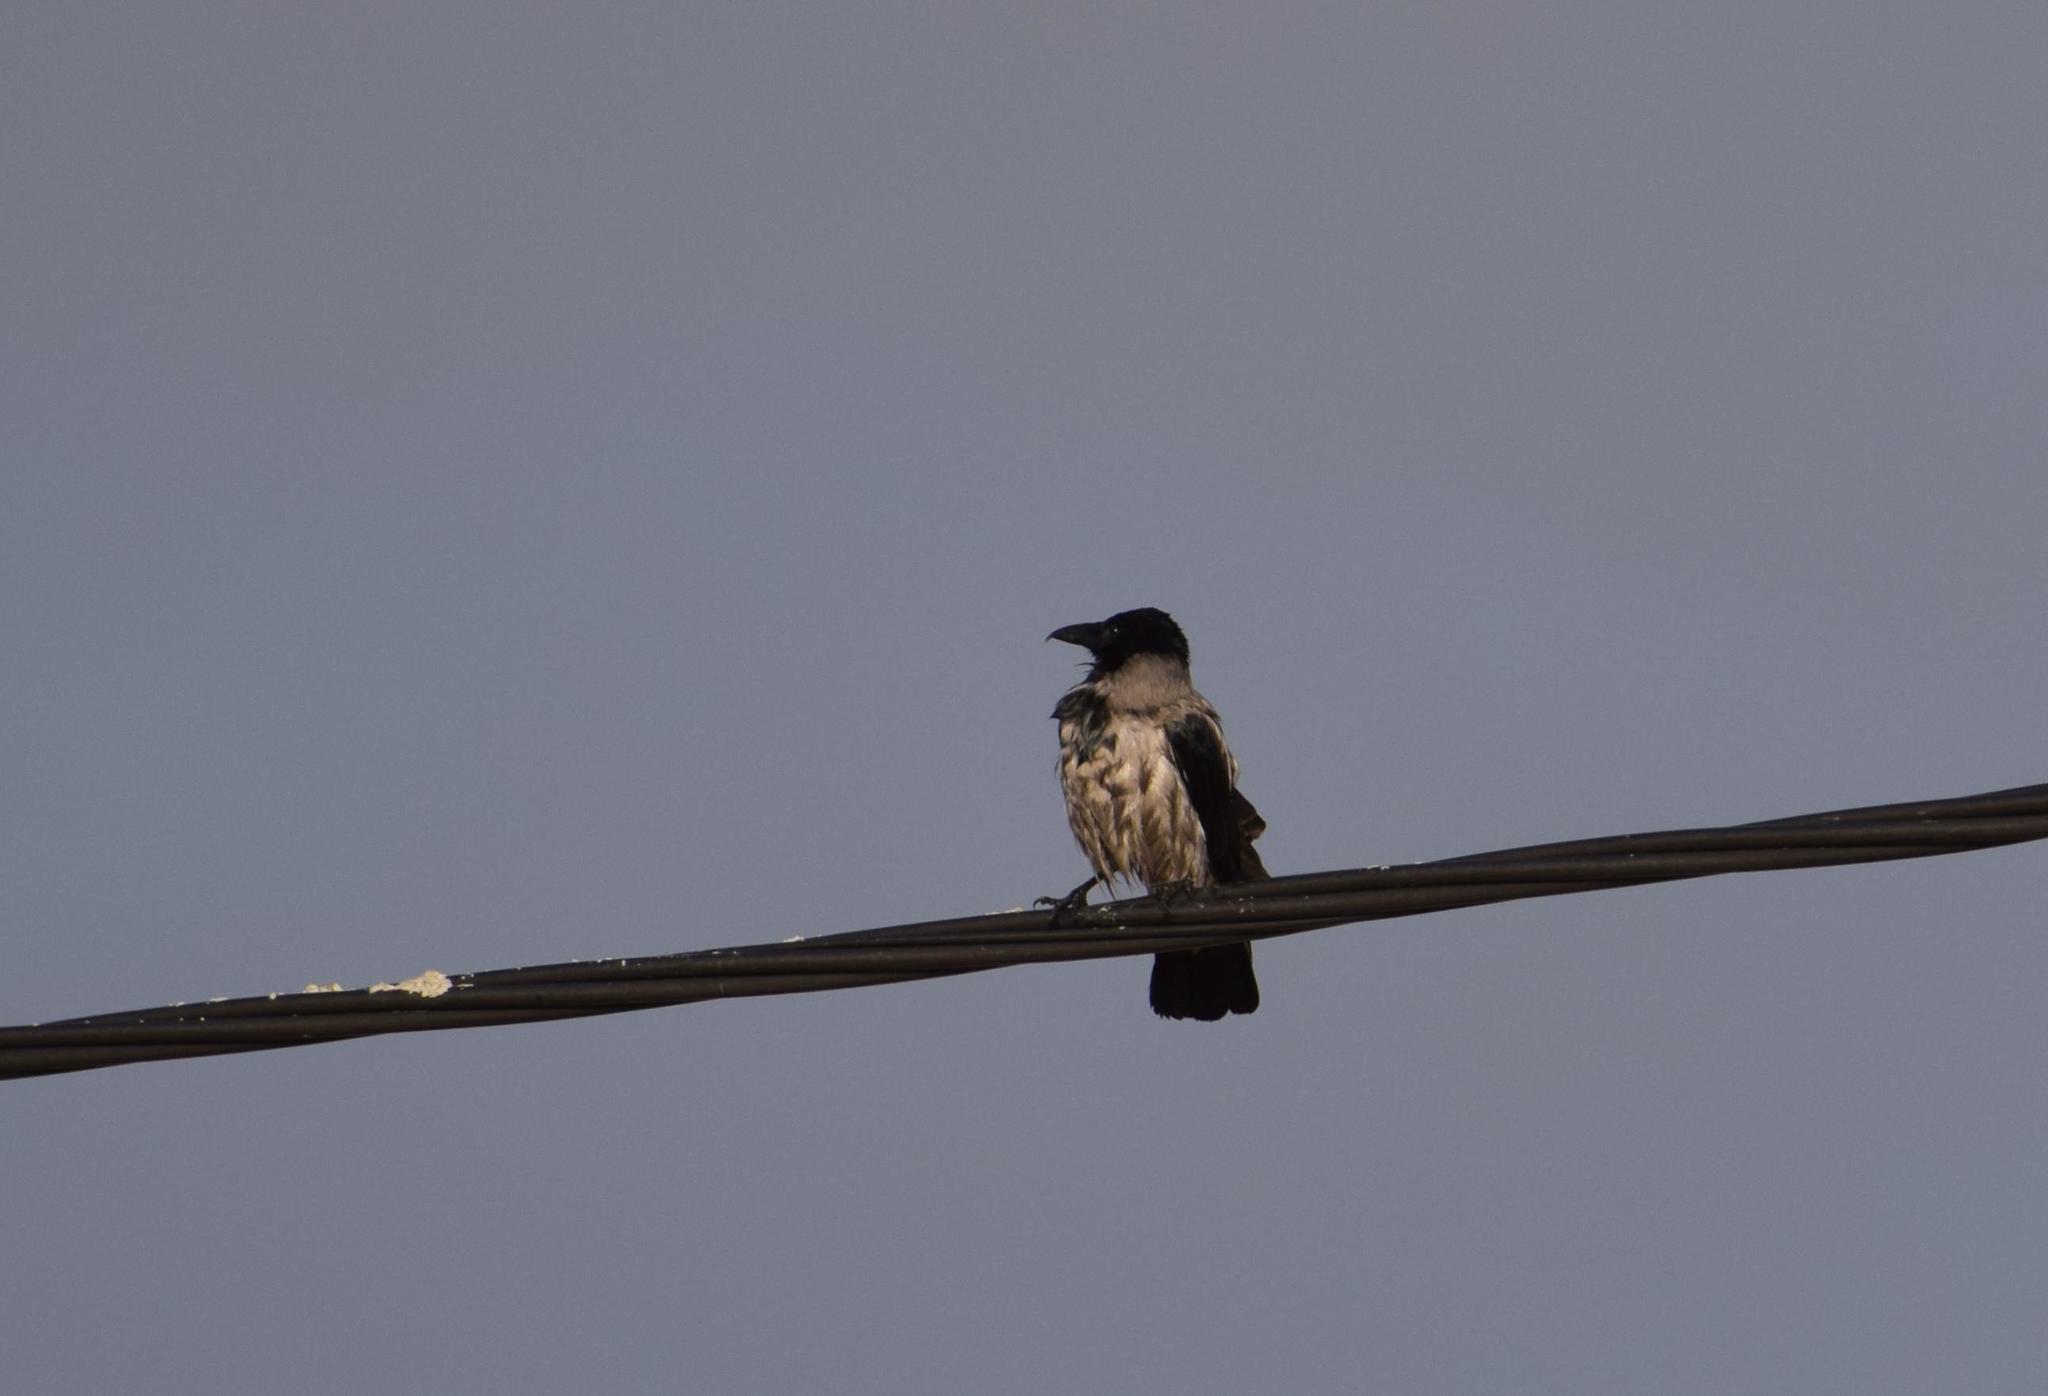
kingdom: Animalia
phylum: Chordata
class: Aves
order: Passeriformes
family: Corvidae
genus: Corvus
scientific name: Corvus cornix
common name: Hooded crow
